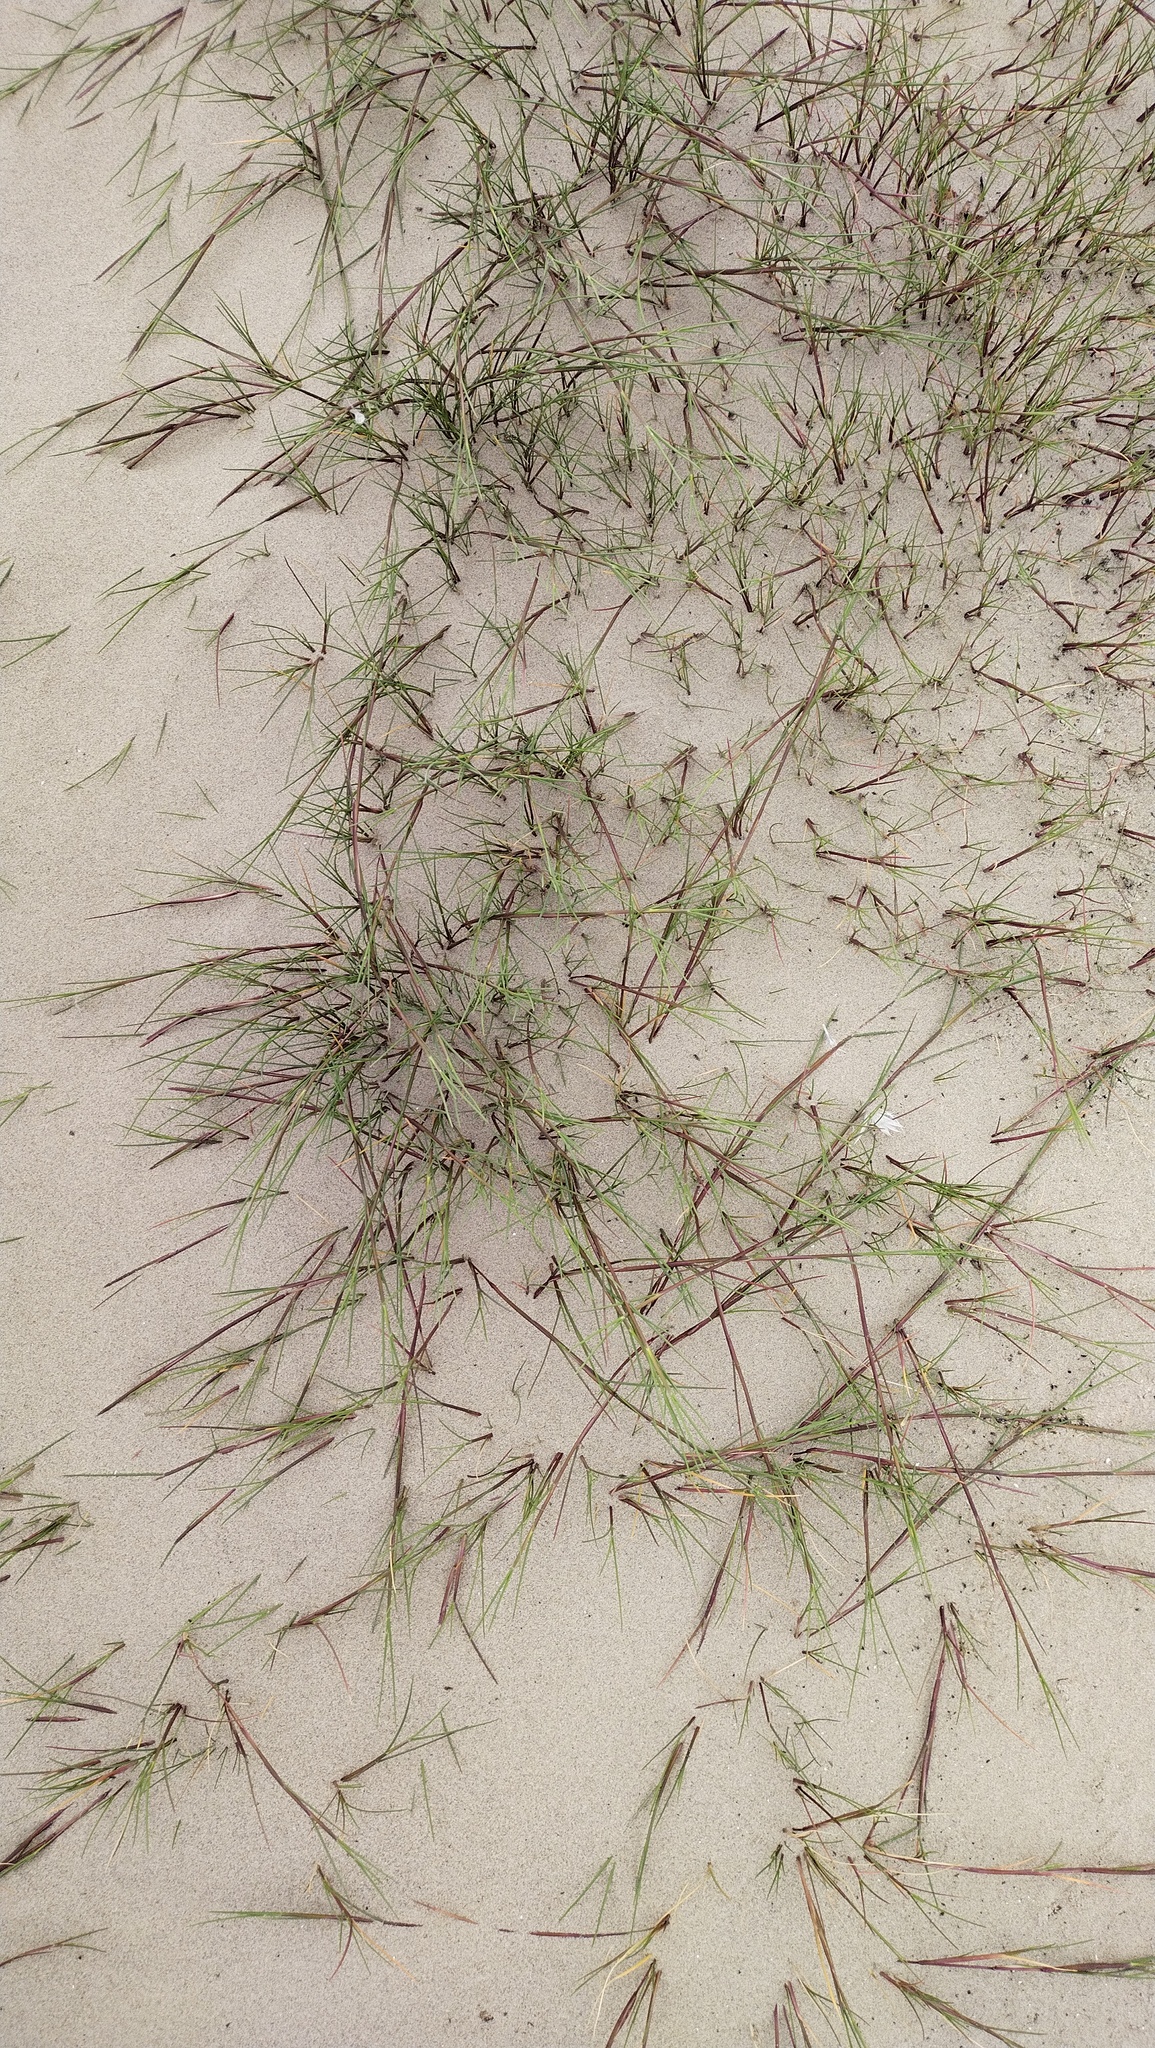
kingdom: Plantae
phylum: Tracheophyta
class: Liliopsida
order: Poales
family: Poaceae
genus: Agrostis
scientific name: Agrostis stolonifera
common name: Creeping bentgrass
